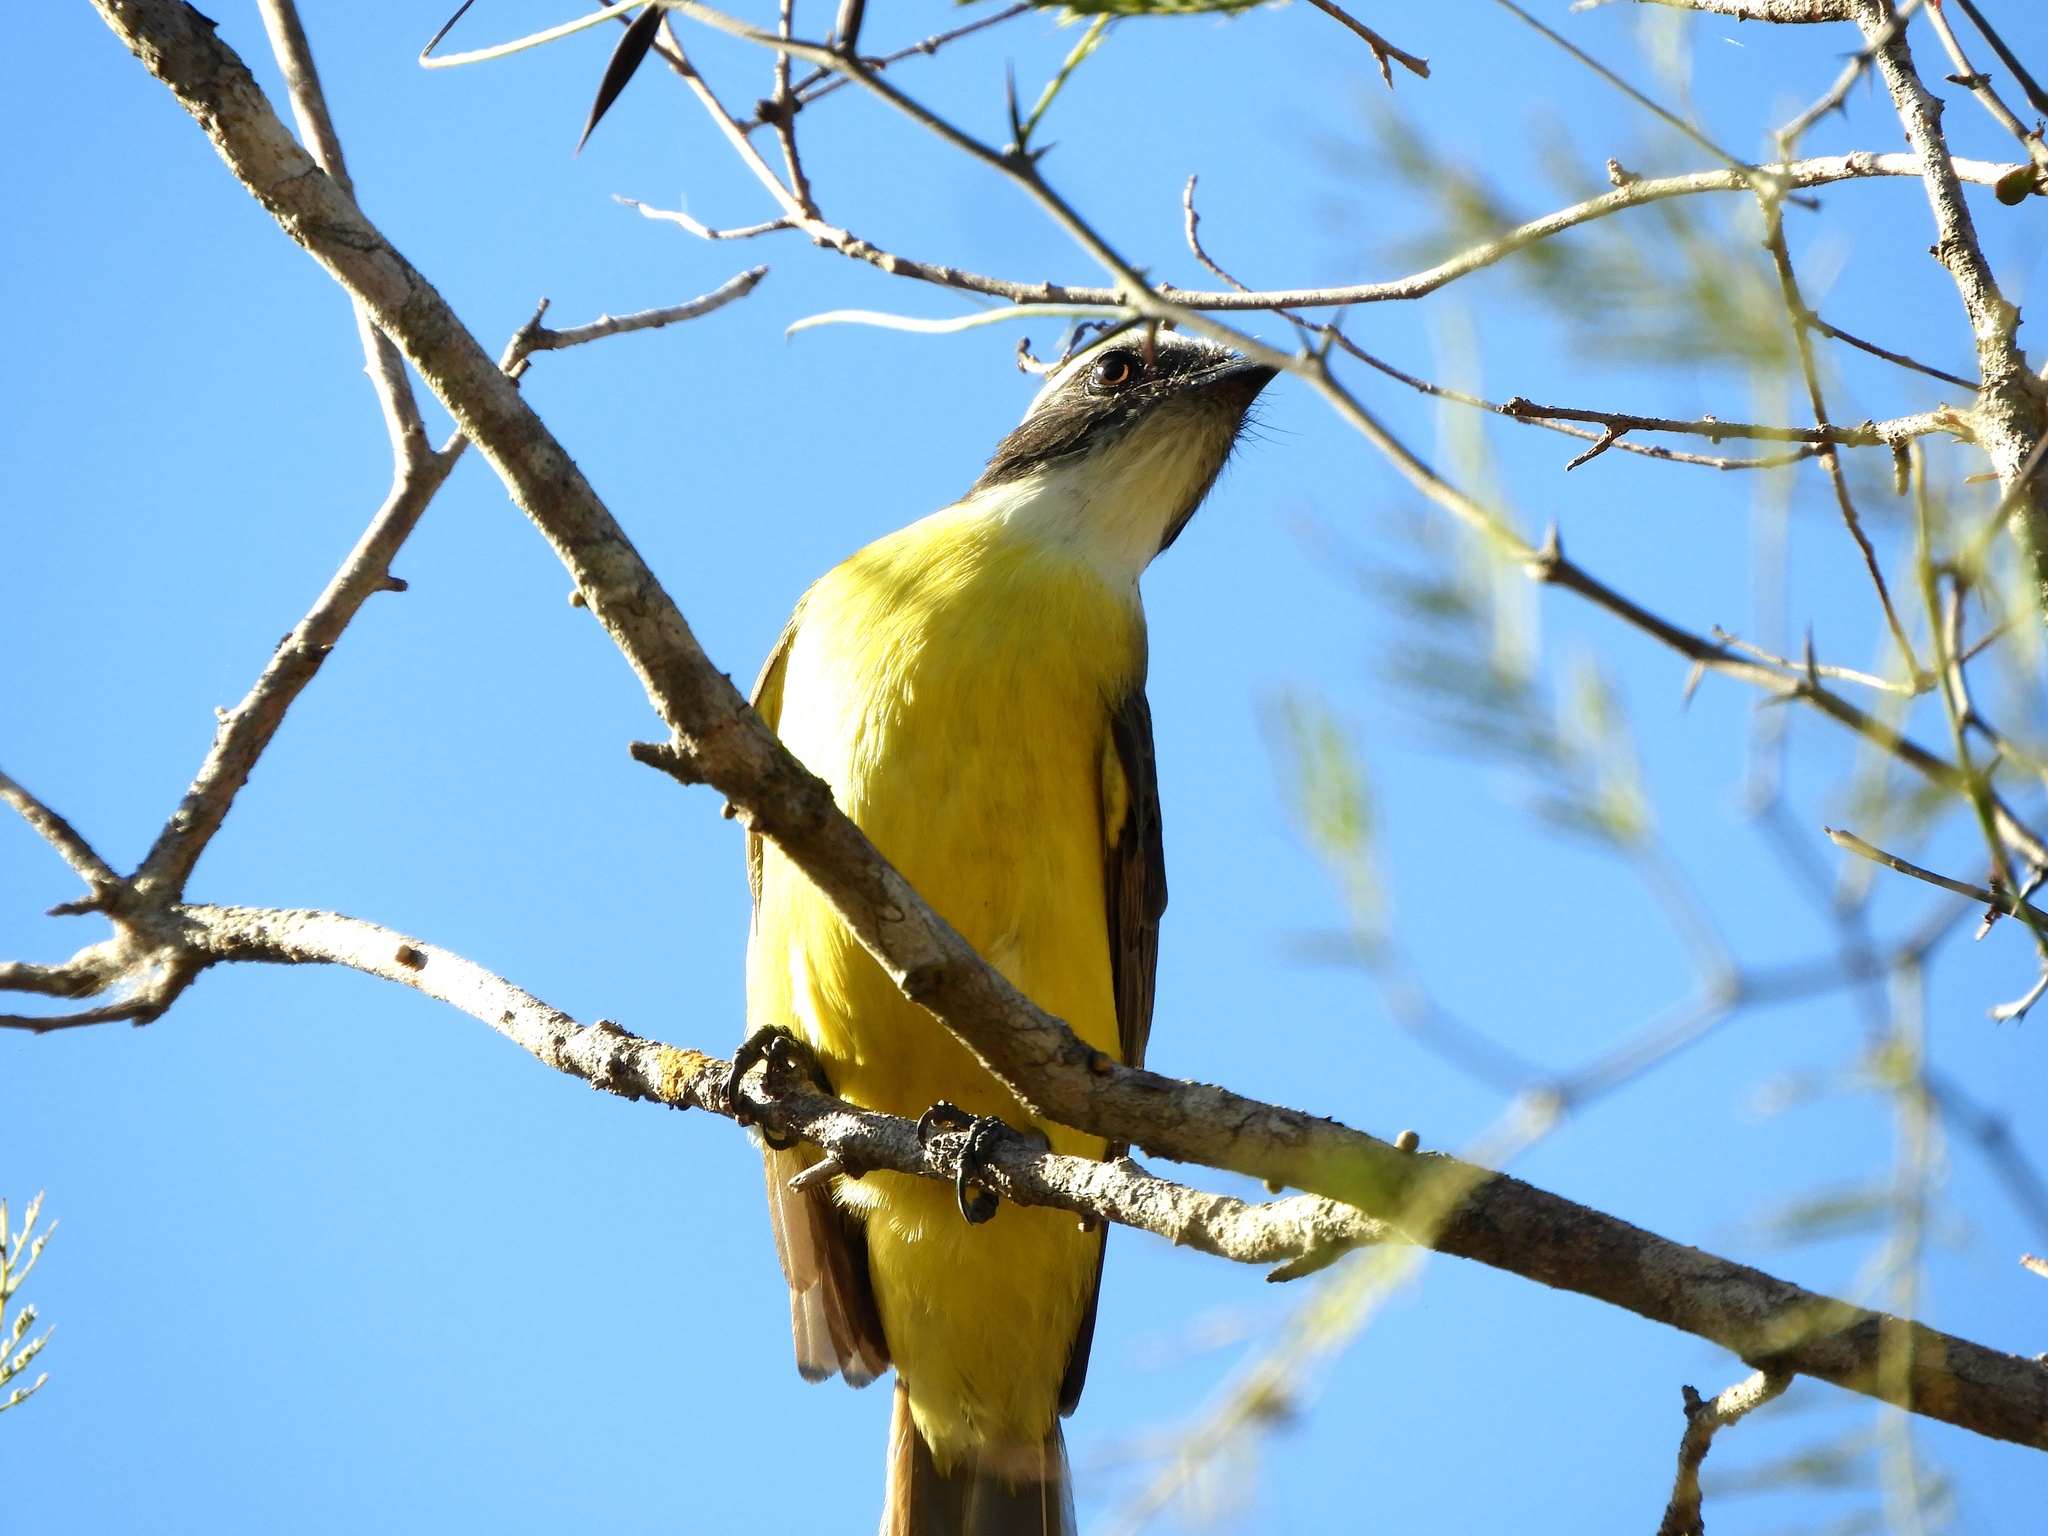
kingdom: Animalia
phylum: Chordata
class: Aves
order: Passeriformes
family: Tyrannidae
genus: Myiozetetes
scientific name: Myiozetetes similis
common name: Social flycatcher
